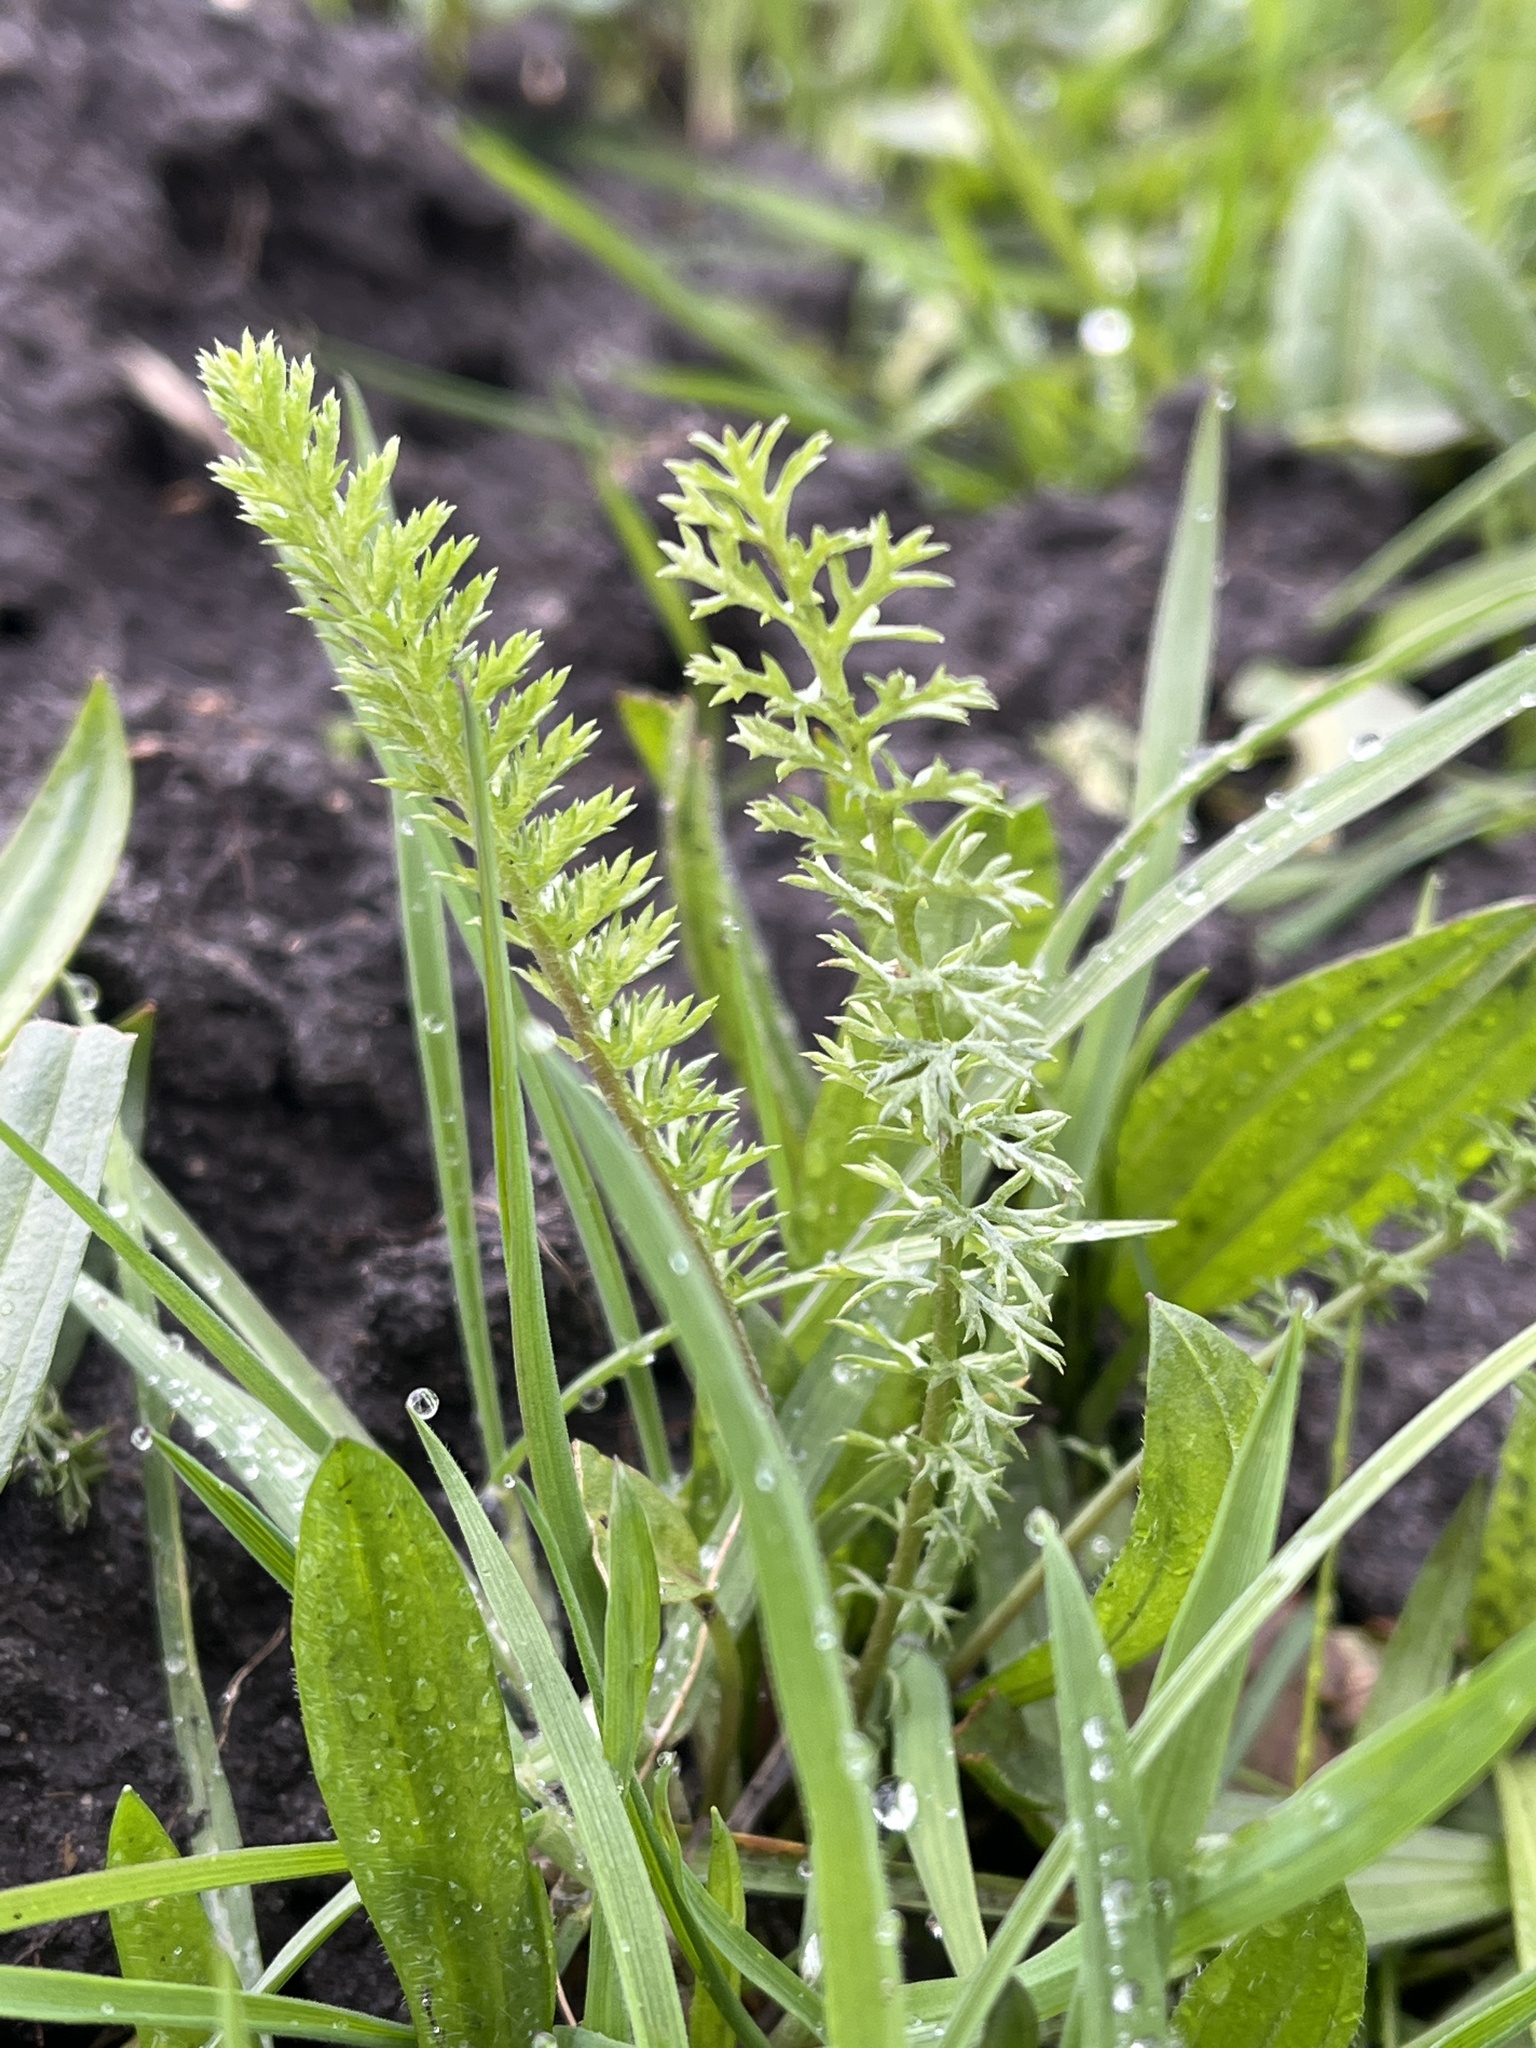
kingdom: Plantae
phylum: Tracheophyta
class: Magnoliopsida
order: Asterales
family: Asteraceae
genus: Achillea
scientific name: Achillea millefolium
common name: Yarrow
